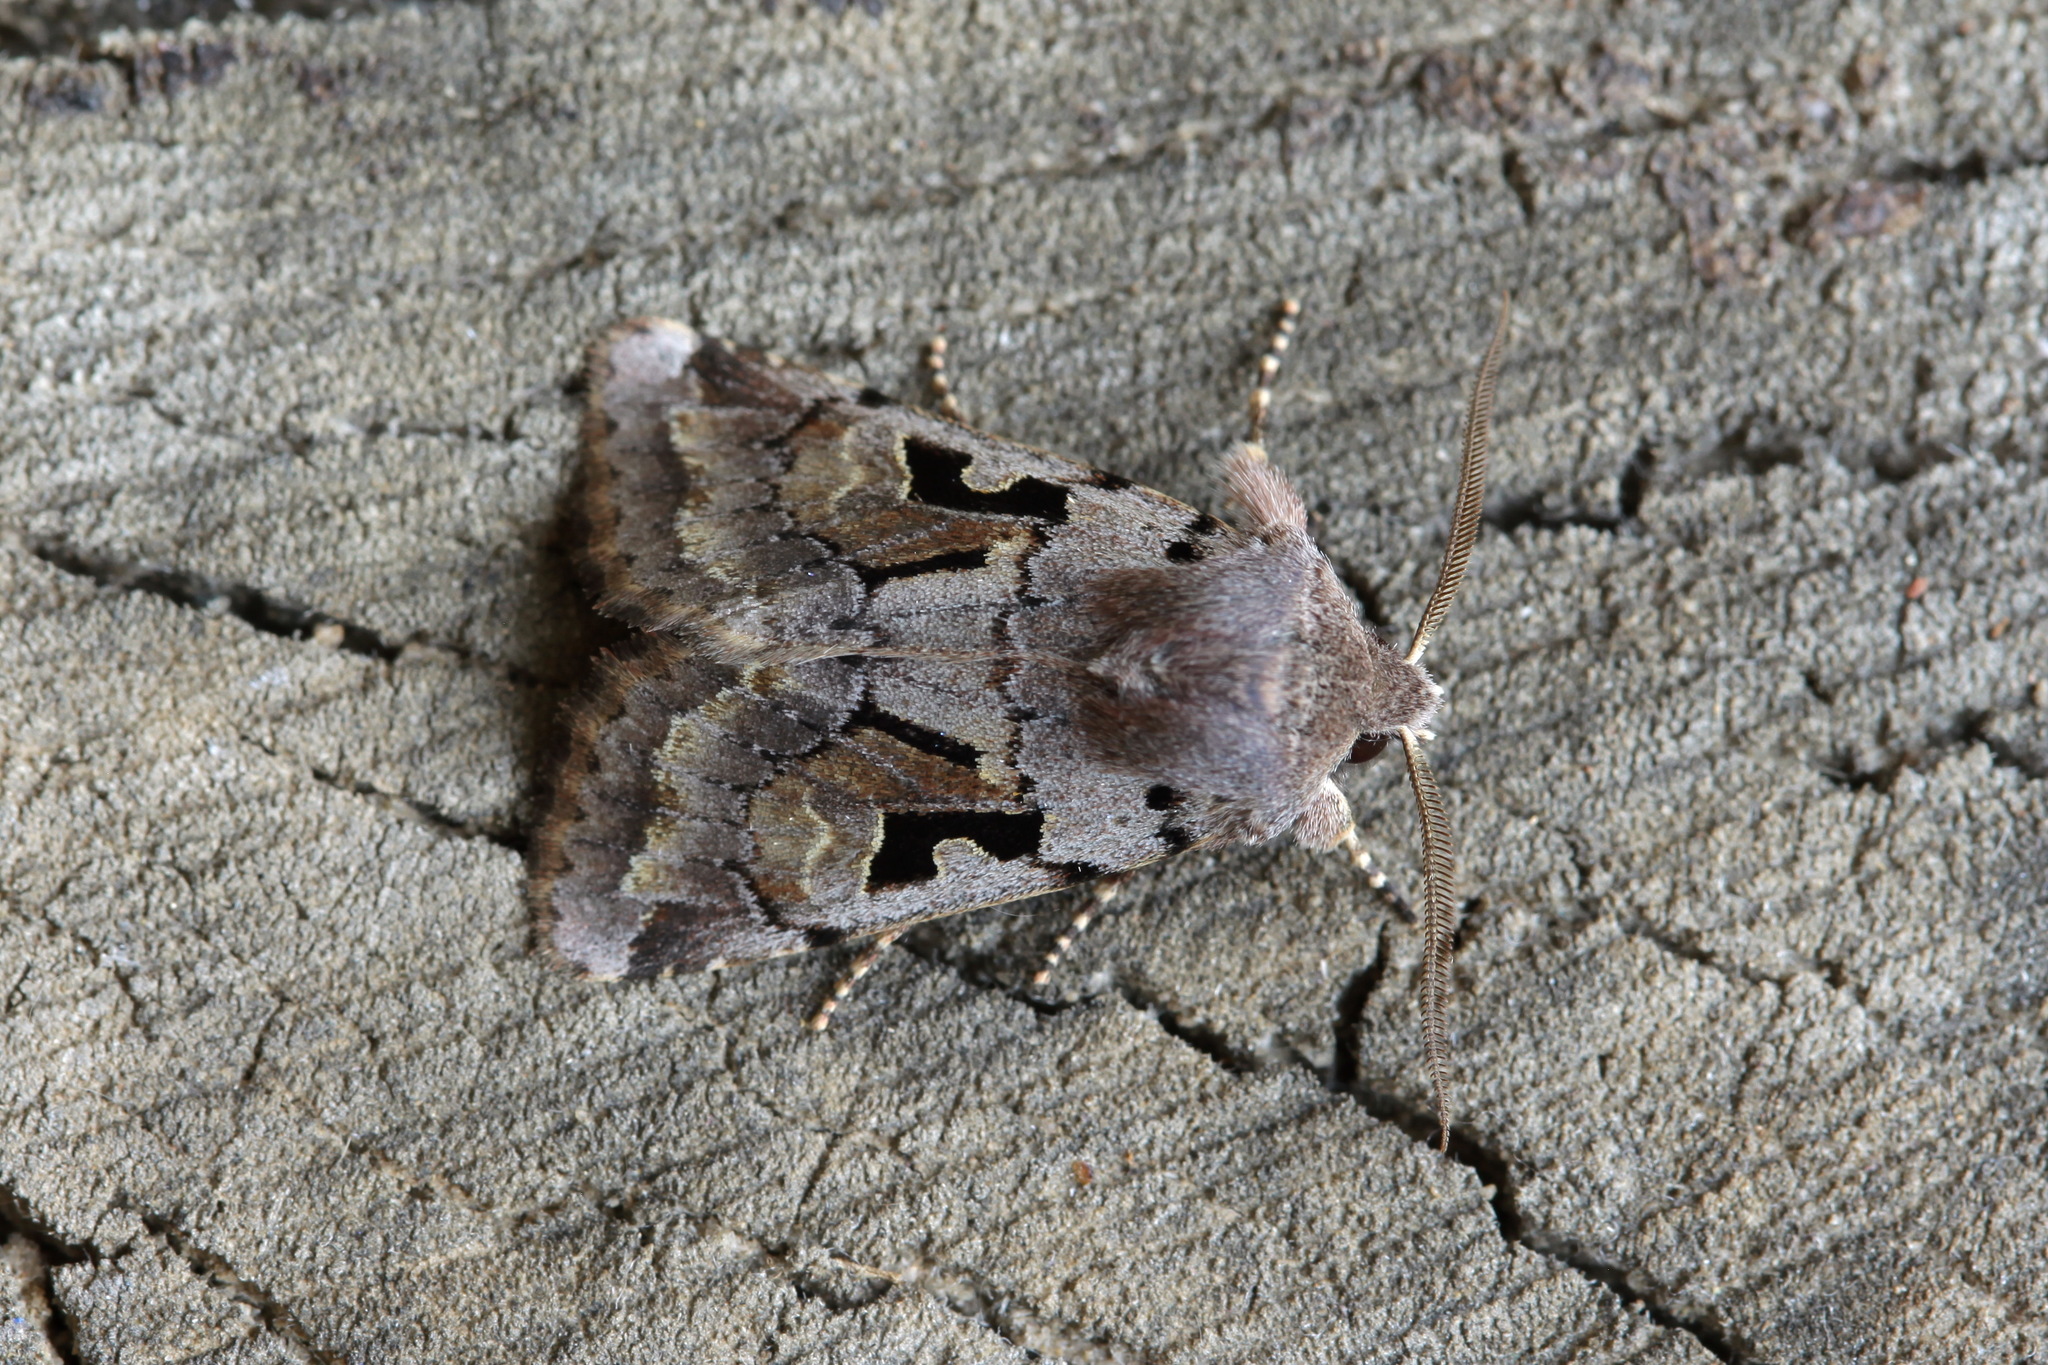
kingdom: Animalia
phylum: Arthropoda
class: Insecta
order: Lepidoptera
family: Noctuidae
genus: Orthosia
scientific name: Orthosia gothica
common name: Hebrew character
